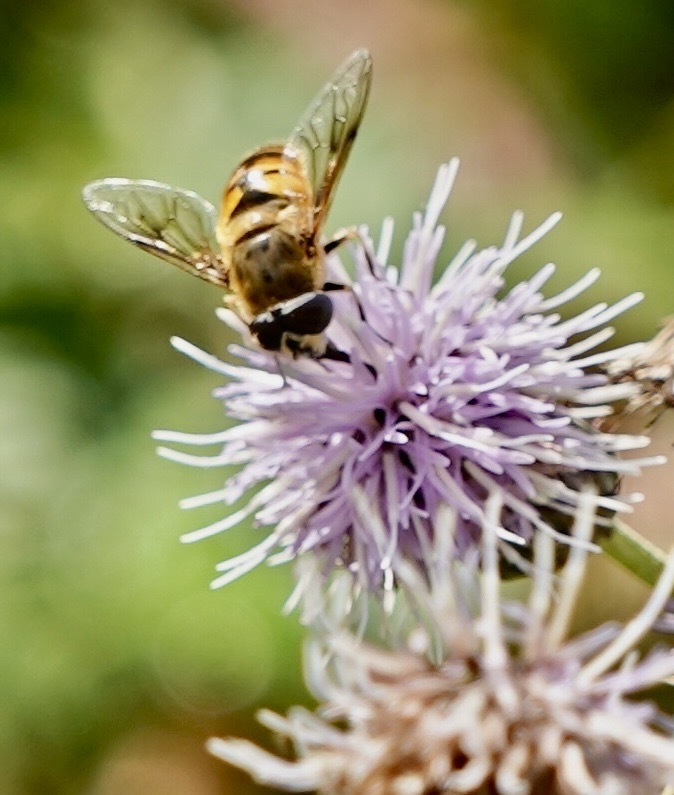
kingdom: Animalia
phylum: Arthropoda
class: Insecta
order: Diptera
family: Syrphidae
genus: Eristalis
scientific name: Eristalis tenax
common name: Drone fly
